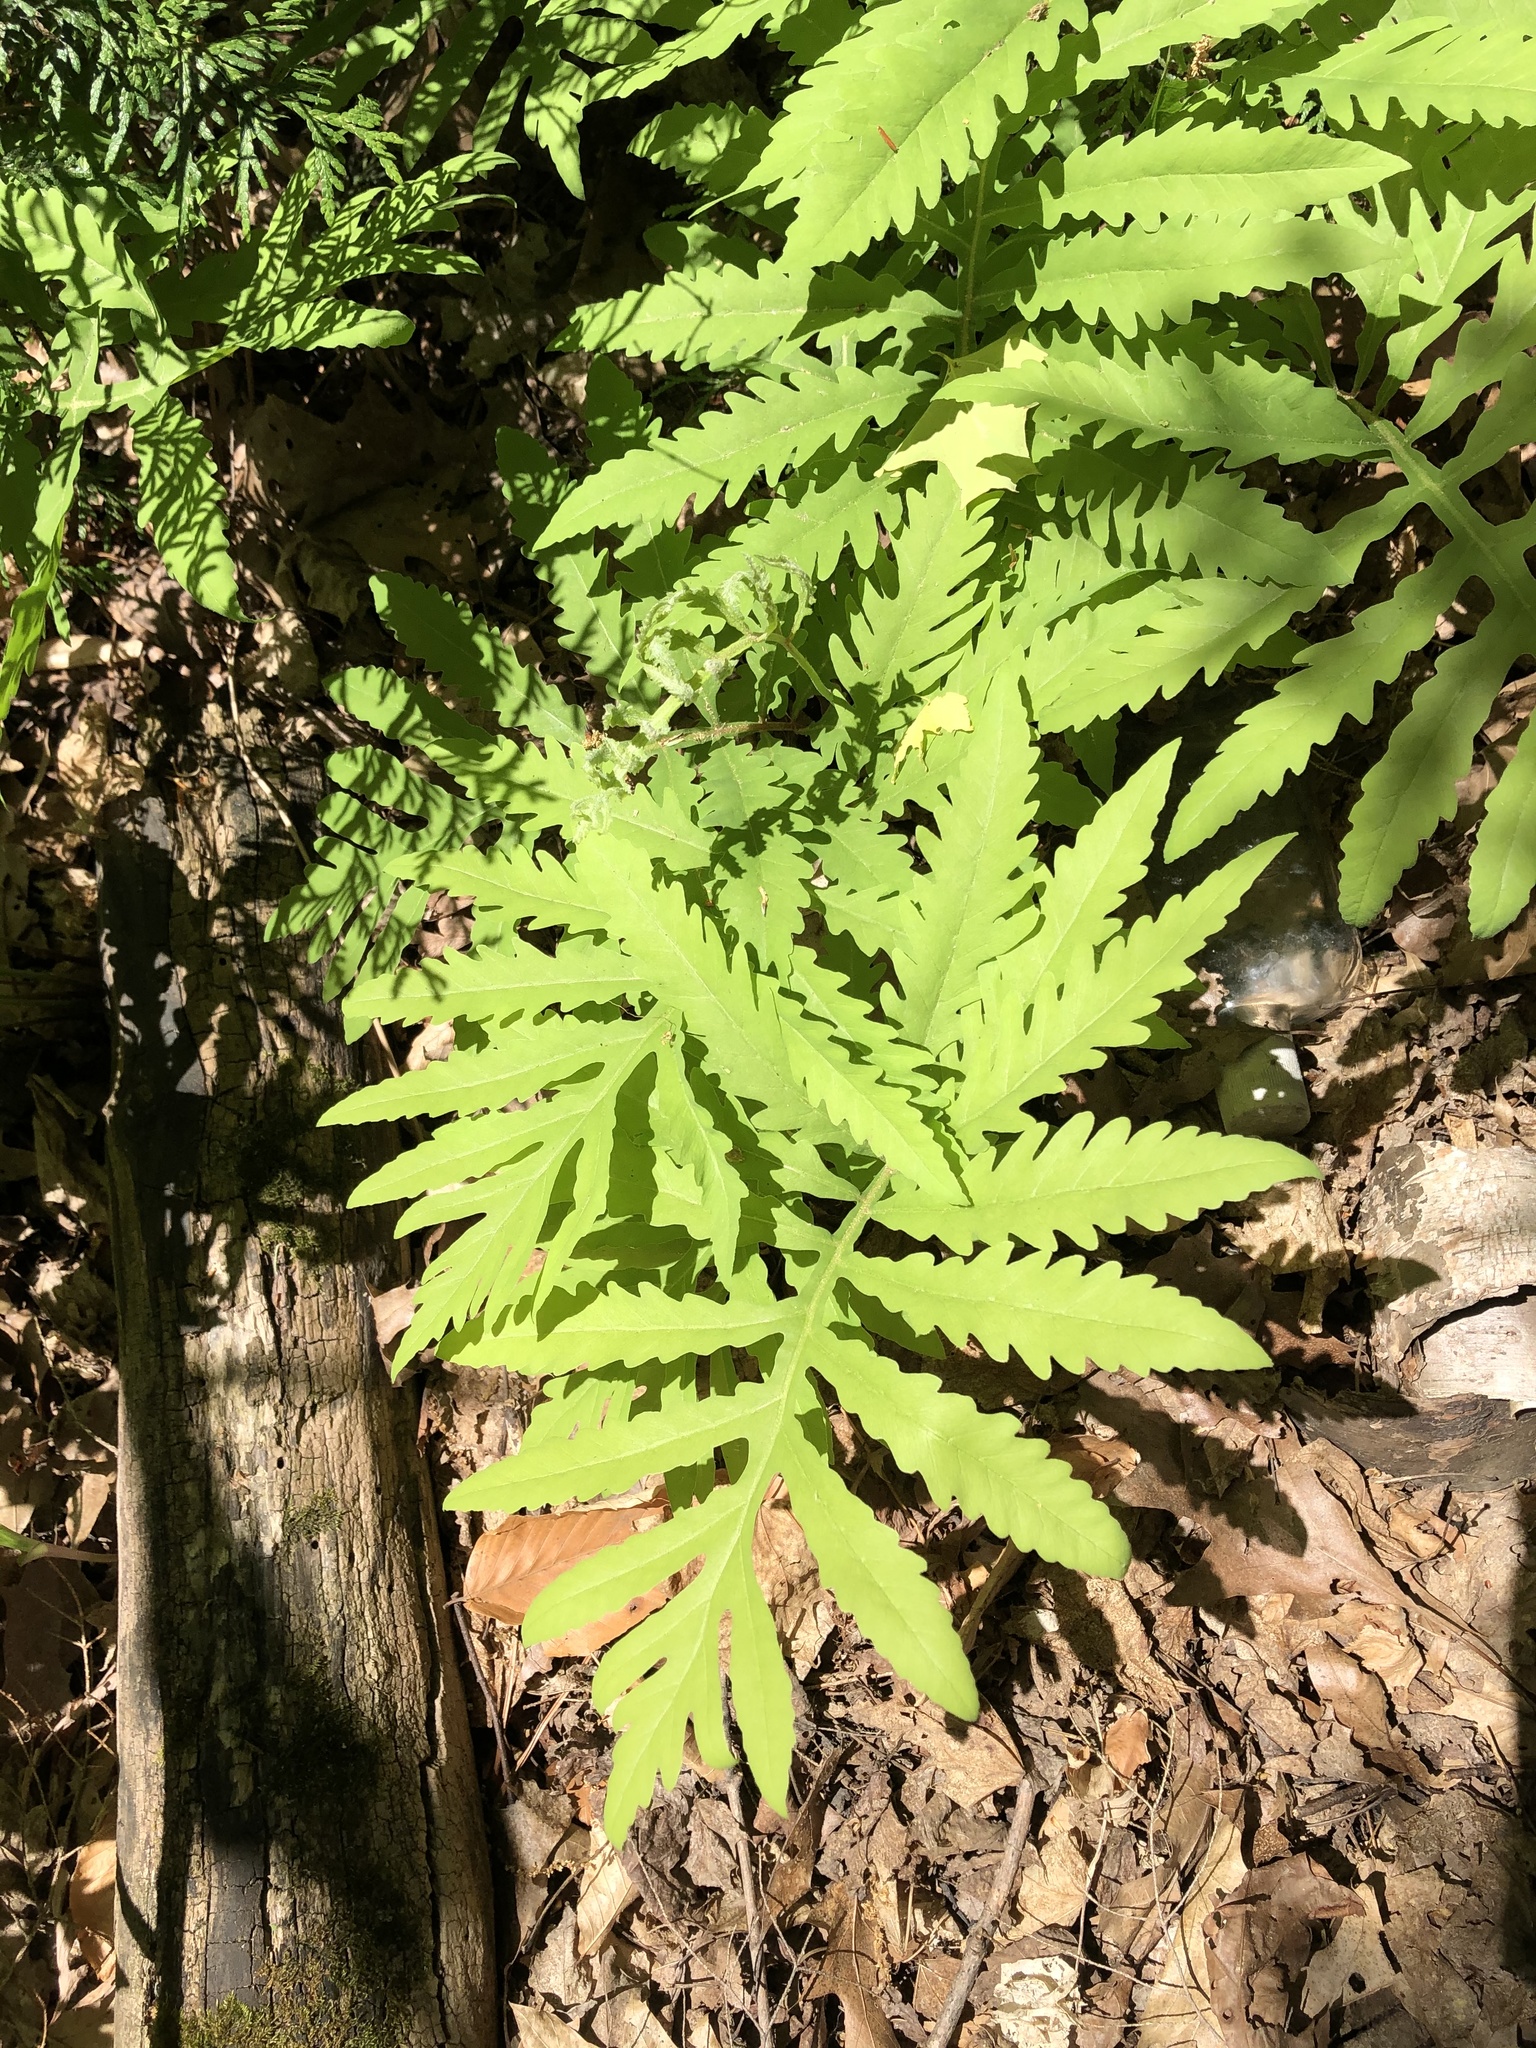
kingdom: Plantae
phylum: Tracheophyta
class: Polypodiopsida
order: Polypodiales
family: Onocleaceae
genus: Onoclea
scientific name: Onoclea sensibilis
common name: Sensitive fern
